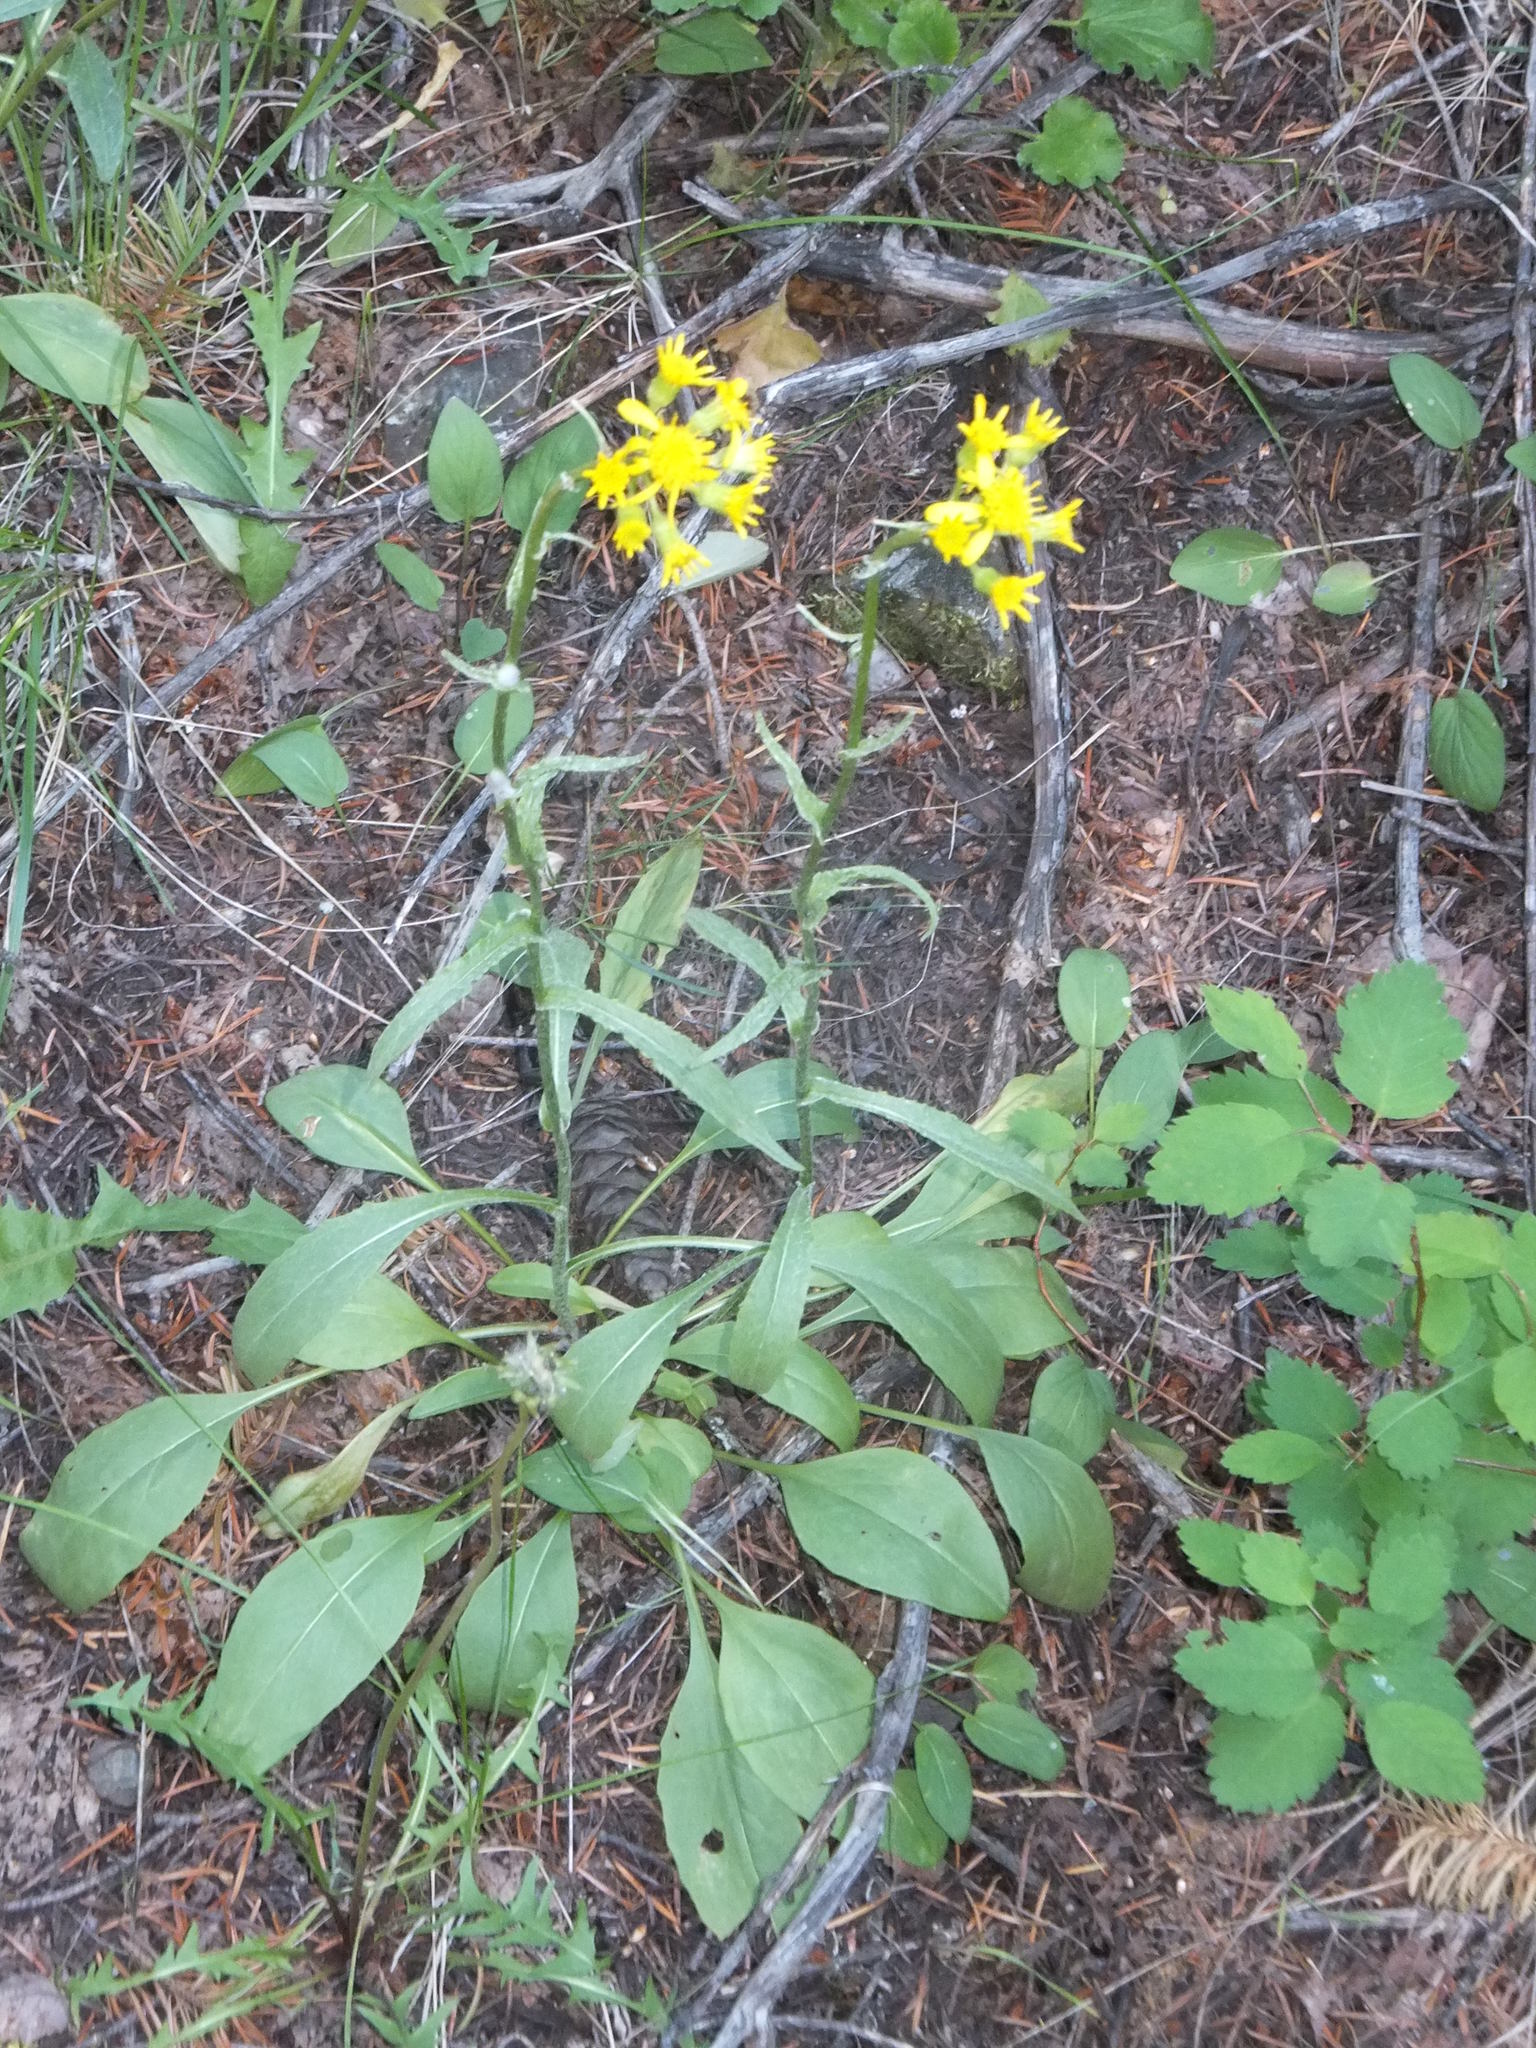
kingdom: Plantae
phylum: Tracheophyta
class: Magnoliopsida
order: Asterales
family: Asteraceae
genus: Senecio
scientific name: Senecio integerrimus
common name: Gaugeplant
